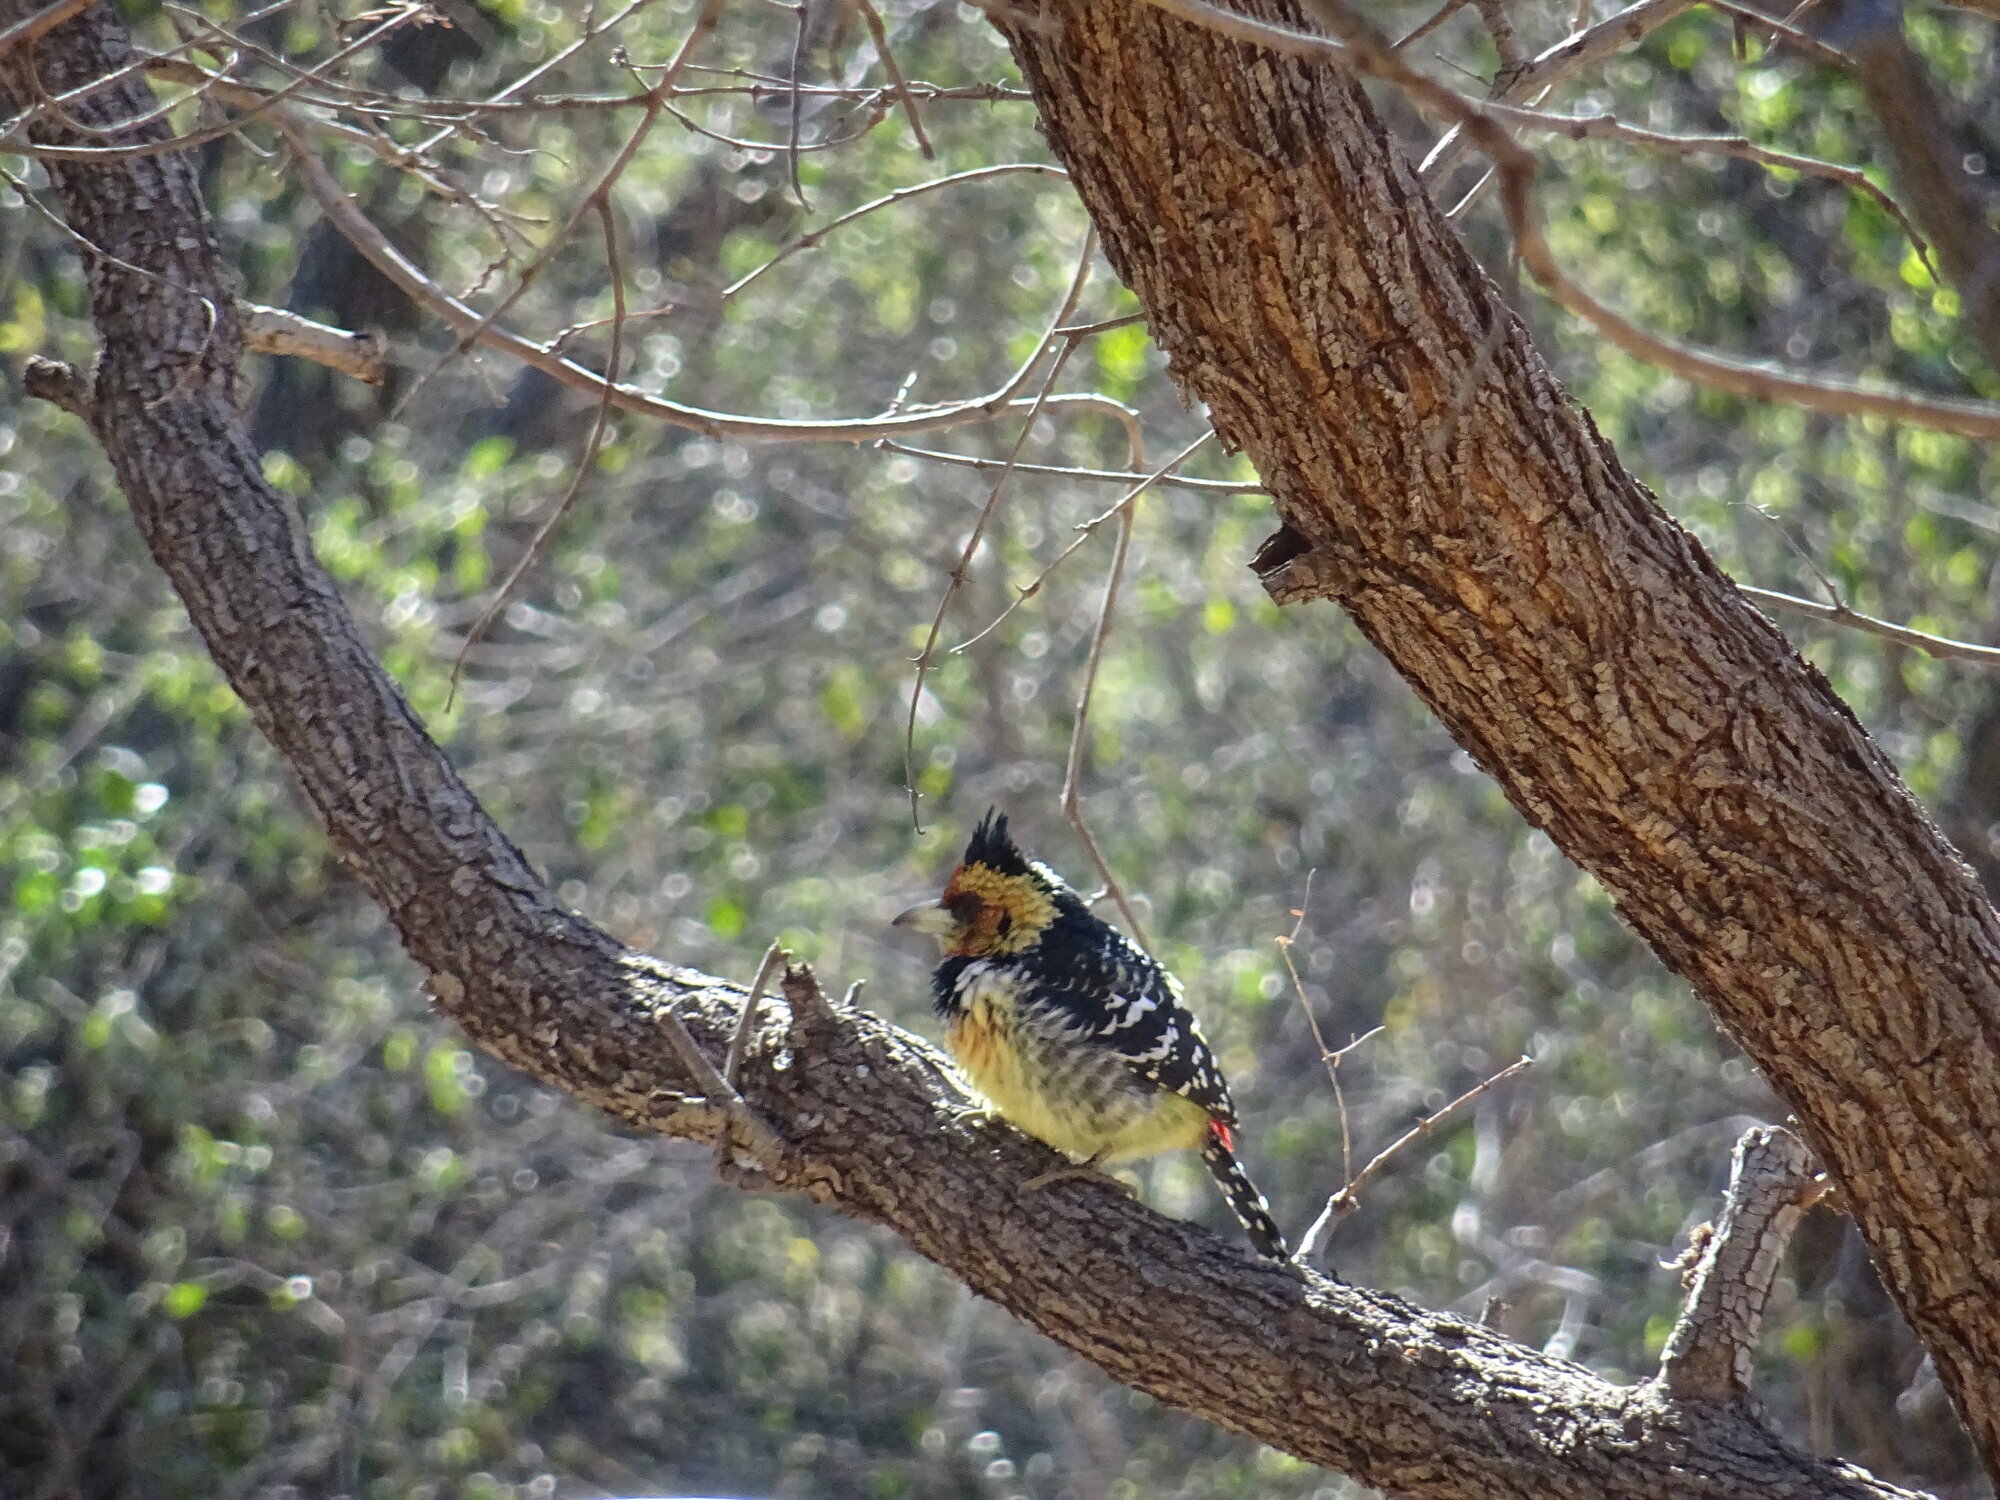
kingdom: Animalia
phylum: Chordata
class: Aves
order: Piciformes
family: Lybiidae
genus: Trachyphonus
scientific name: Trachyphonus vaillantii
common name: Crested barbet
